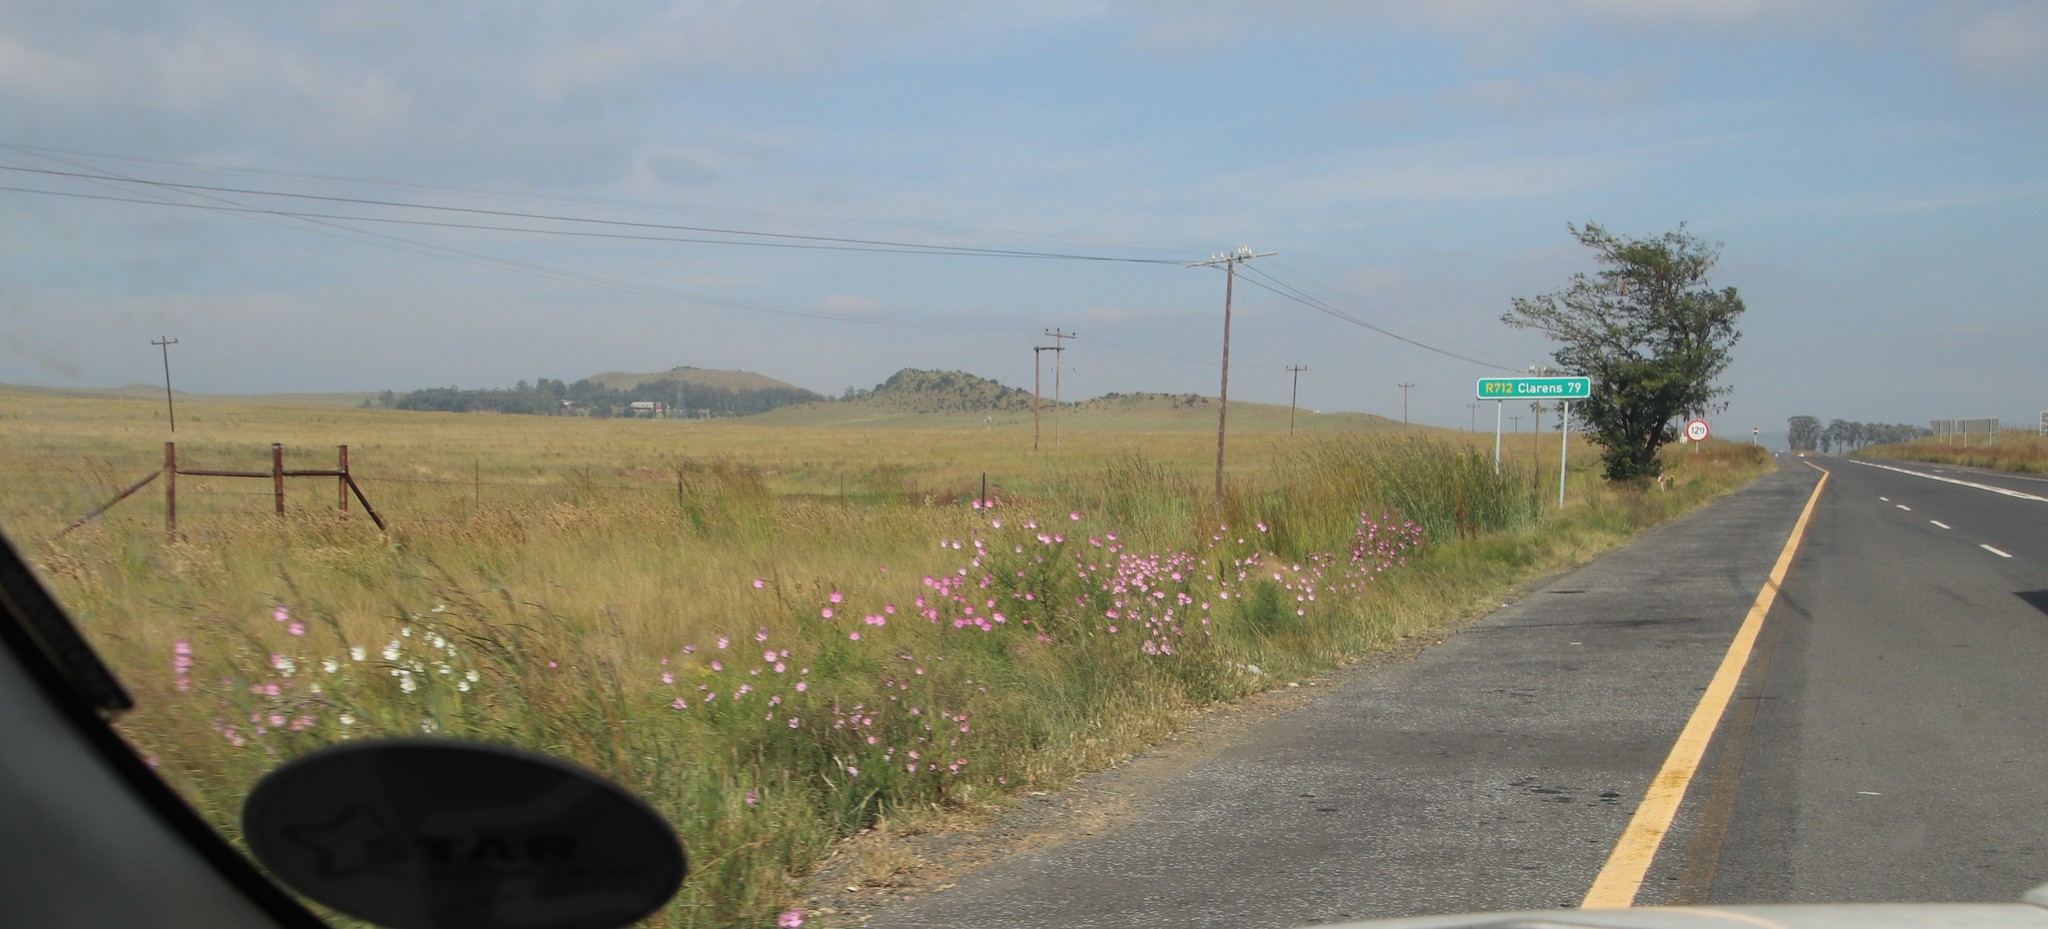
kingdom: Plantae
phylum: Tracheophyta
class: Magnoliopsida
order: Asterales
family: Asteraceae
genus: Cosmos
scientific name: Cosmos bipinnatus
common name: Garden cosmos
